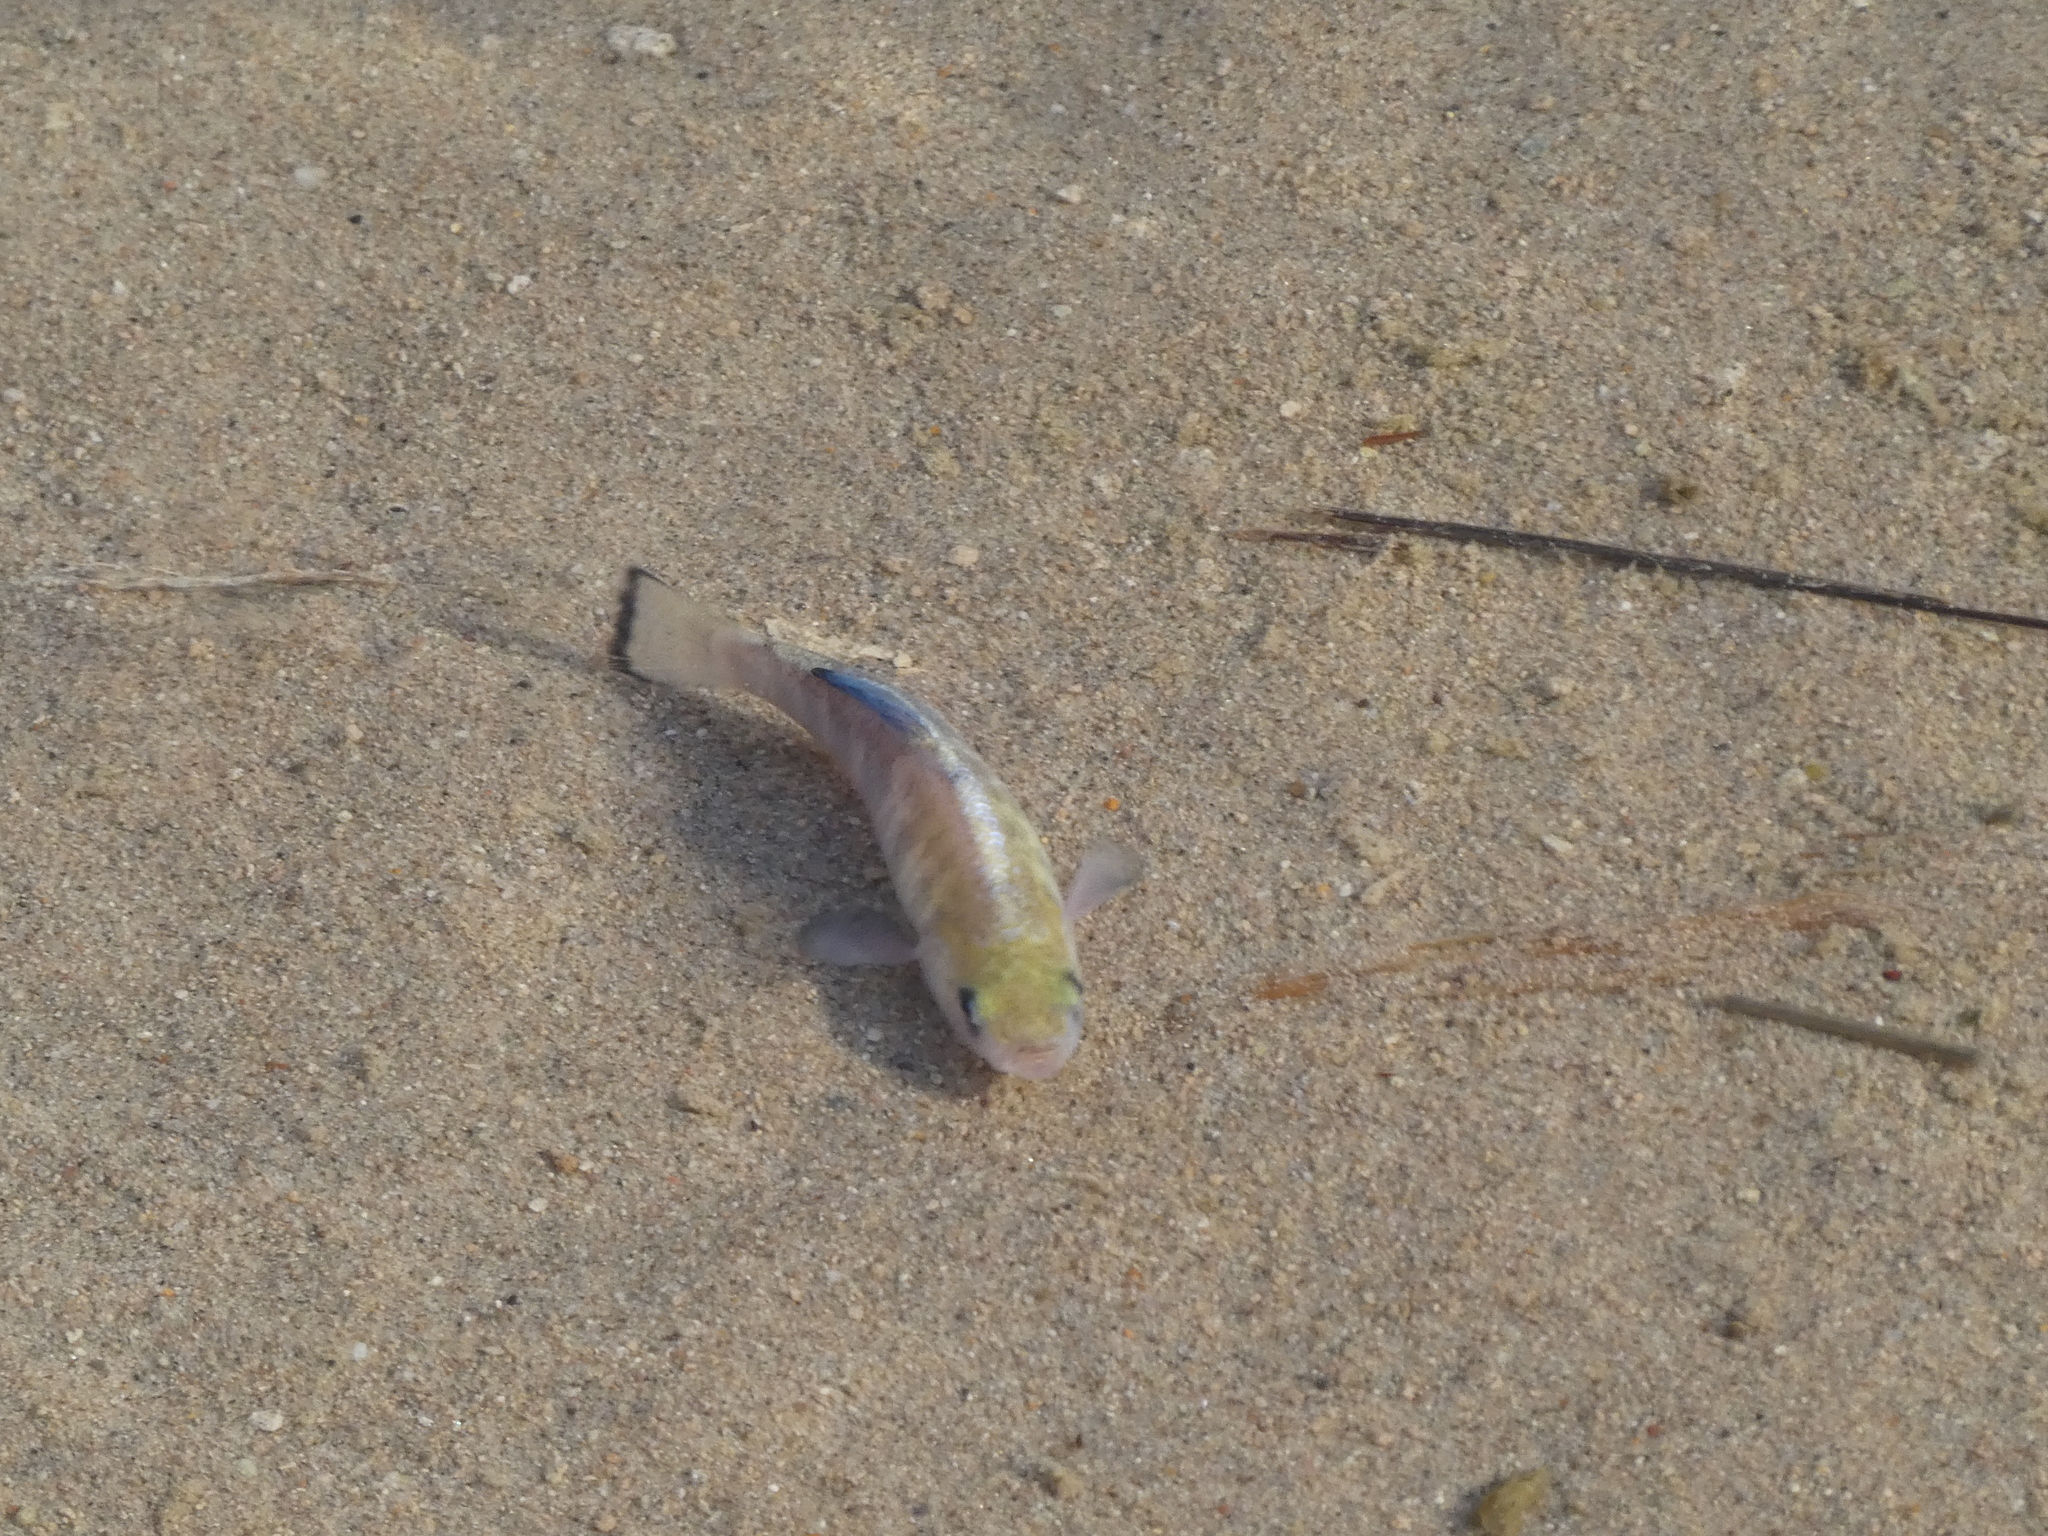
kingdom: Animalia
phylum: Chordata
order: Cyprinodontiformes
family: Cyprinodontidae
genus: Cyprinodon
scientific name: Cyprinodon salinus
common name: Cottonball marsh pupfish
